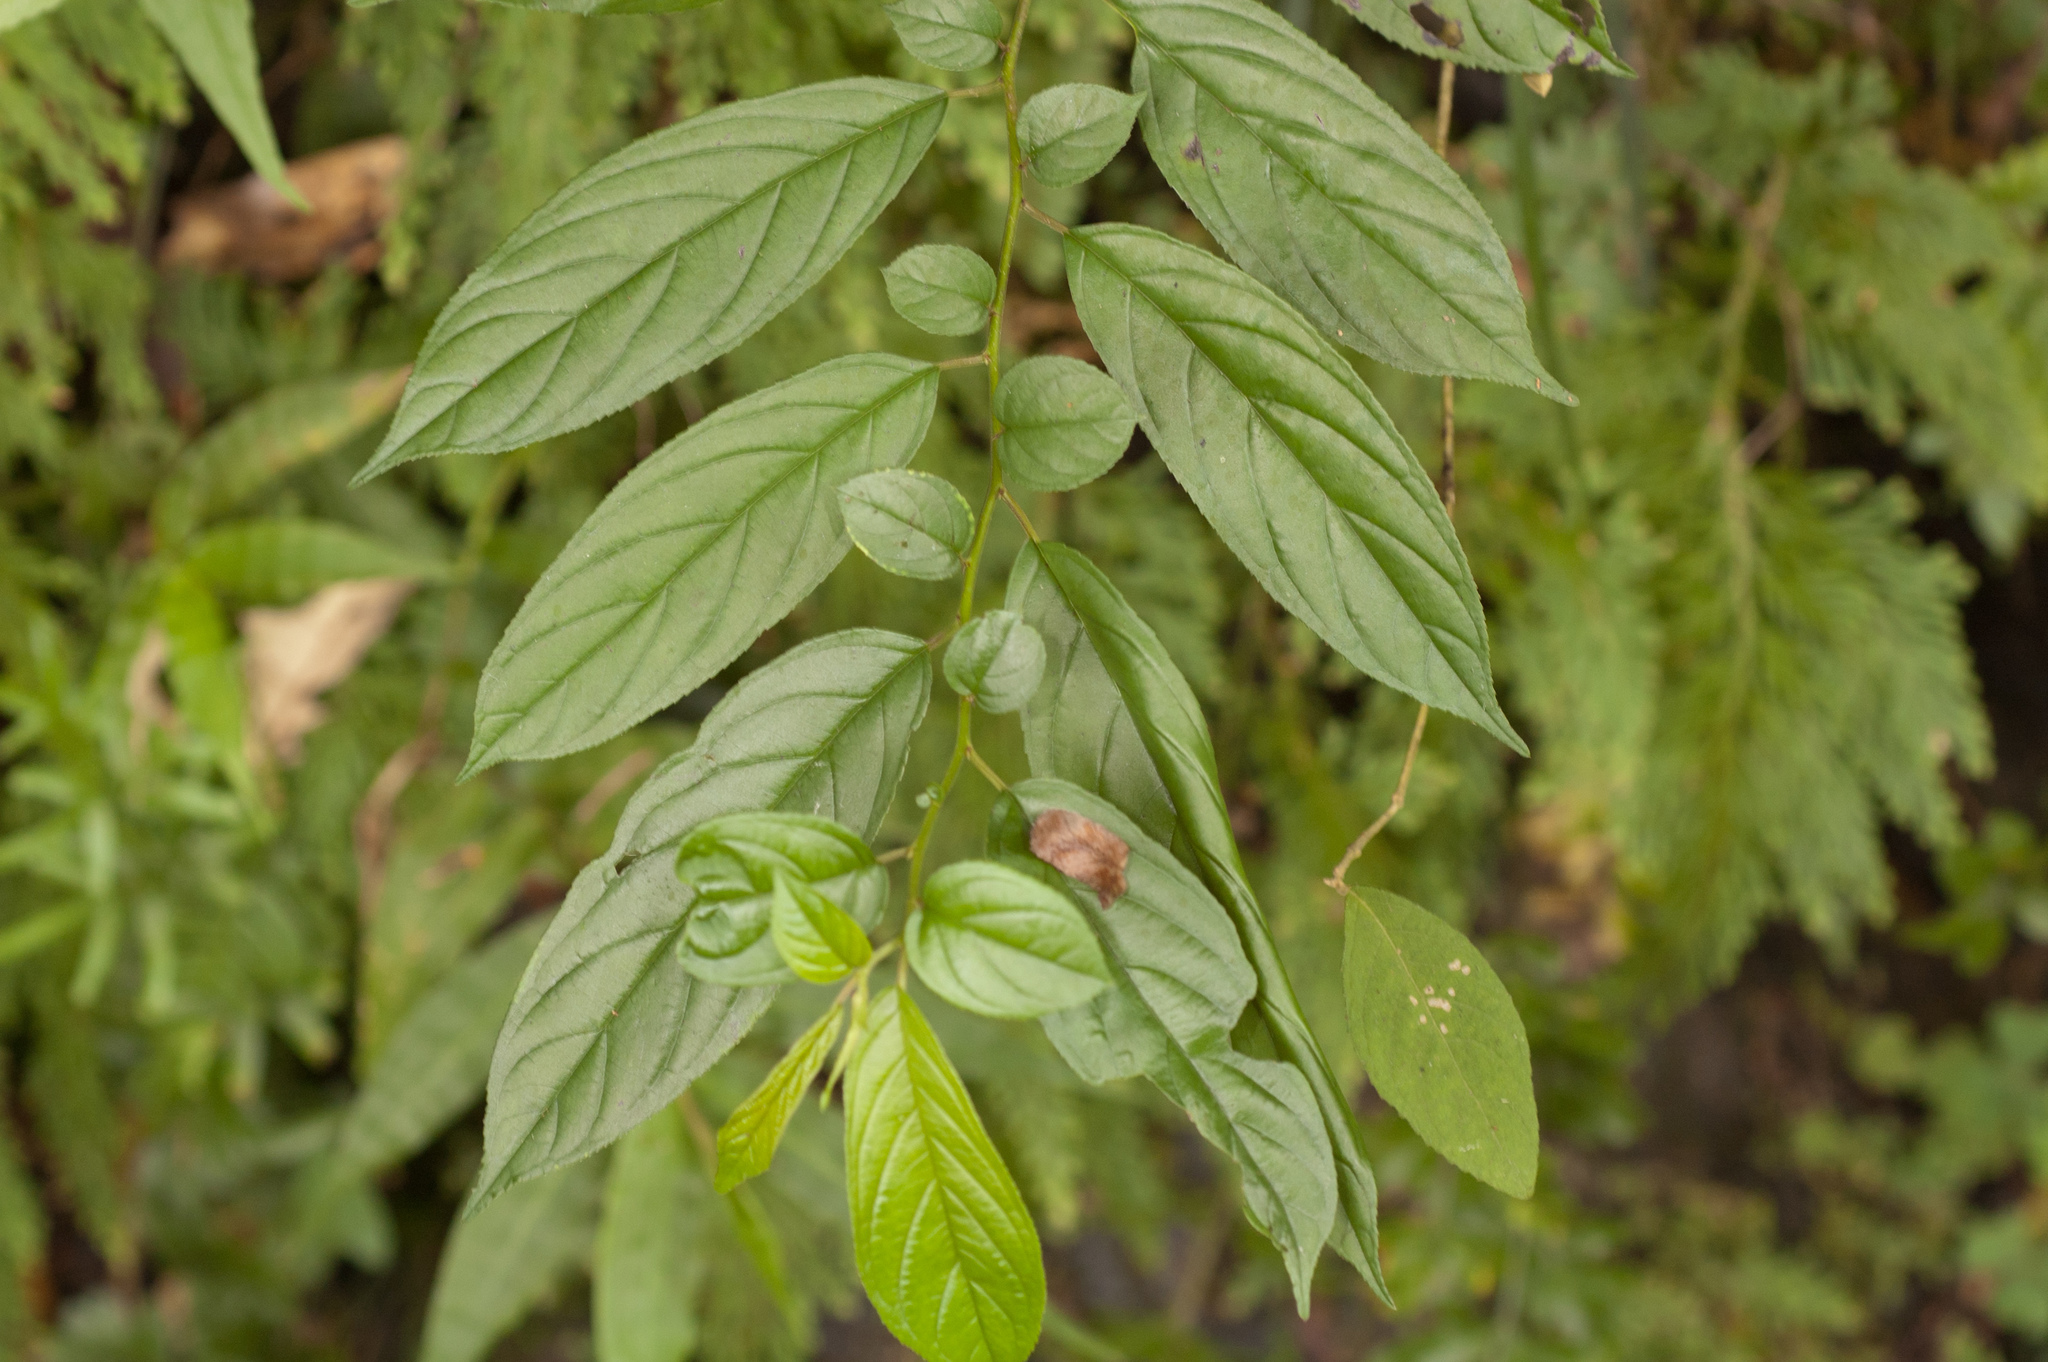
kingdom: Plantae
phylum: Tracheophyta
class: Magnoliopsida
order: Rosales
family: Rhamnaceae
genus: Rhamnus
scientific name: Rhamnus formosana
